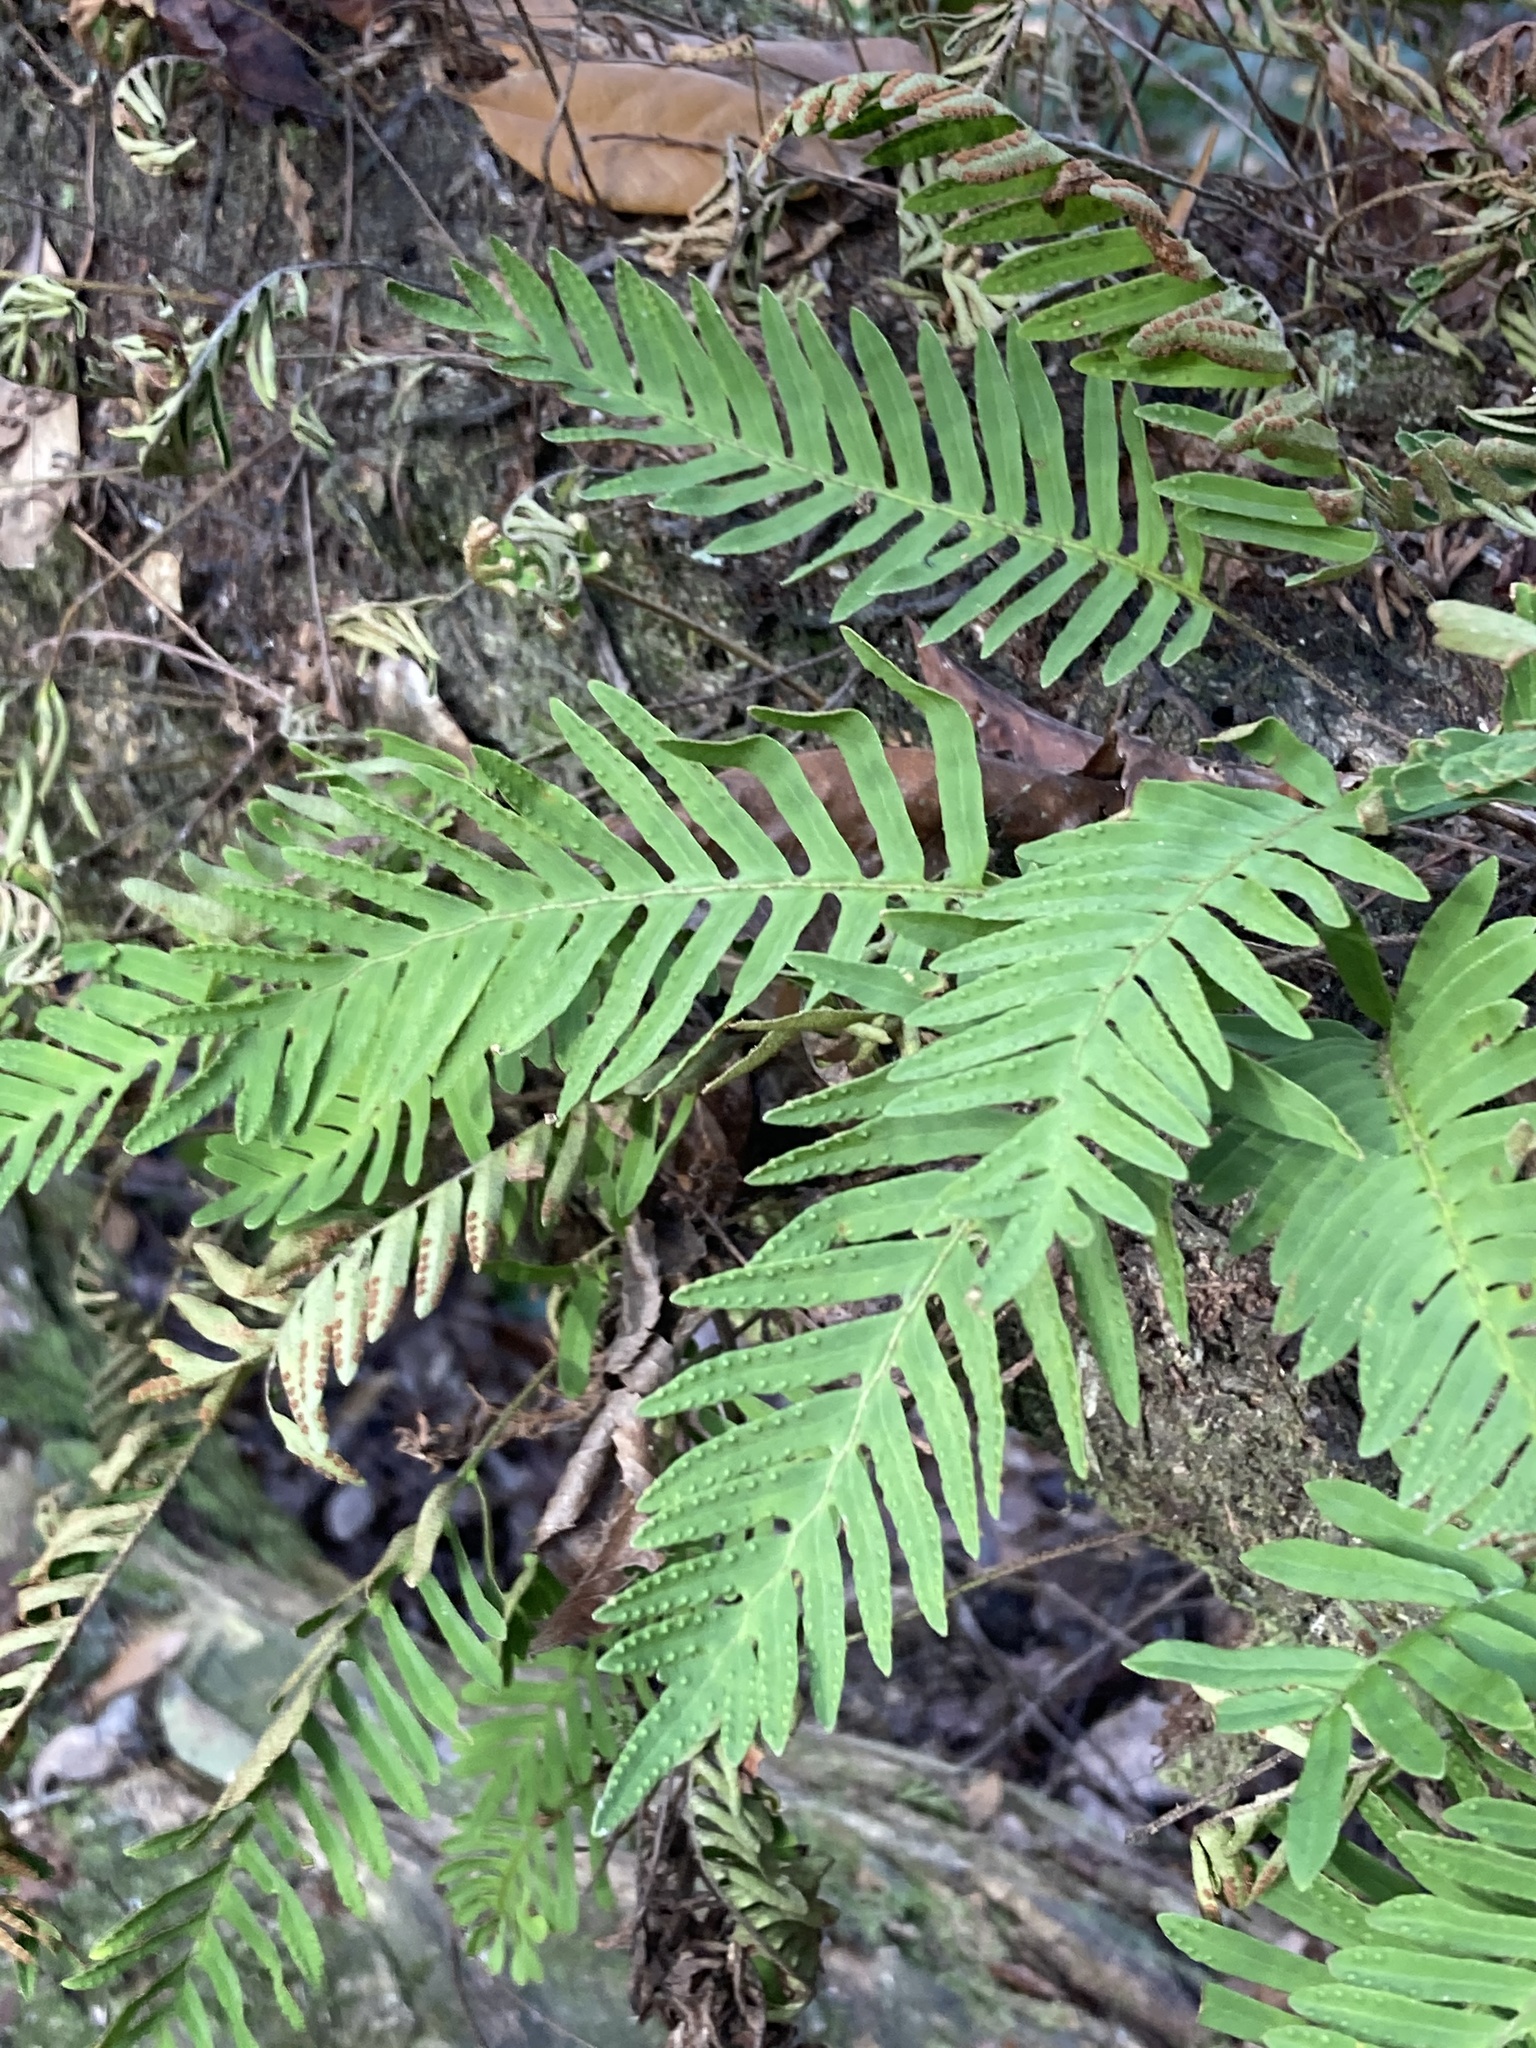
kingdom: Plantae
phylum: Tracheophyta
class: Polypodiopsida
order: Polypodiales
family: Polypodiaceae
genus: Pleopeltis
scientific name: Pleopeltis michauxiana
